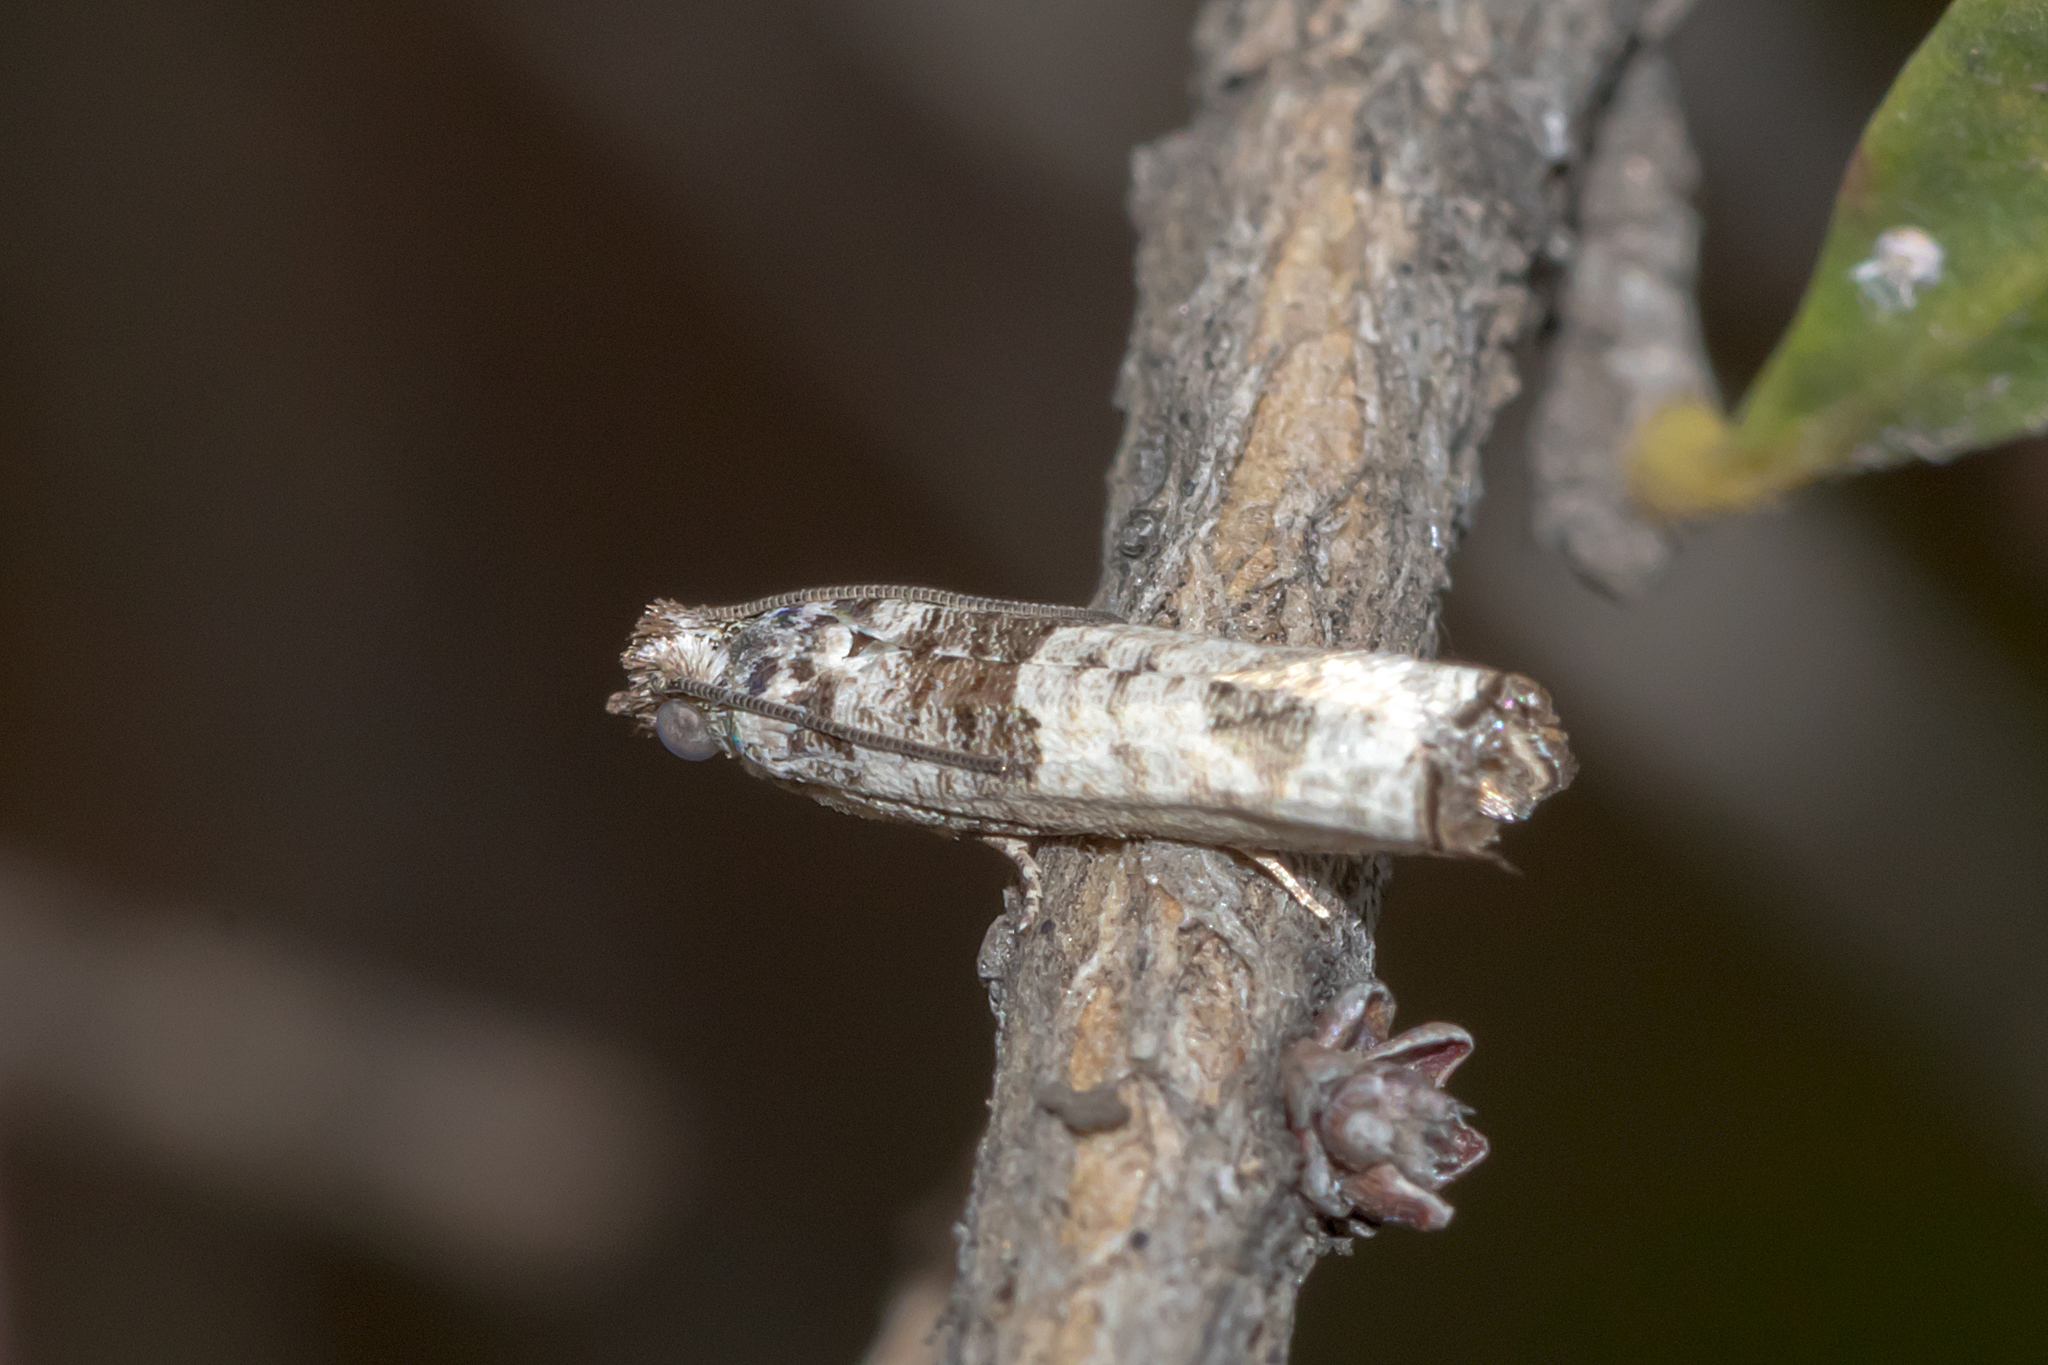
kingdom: Animalia
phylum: Arthropoda
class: Insecta
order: Lepidoptera
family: Tortricidae
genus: Crocidosema
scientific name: Crocidosema plebejana
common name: Southern bell
